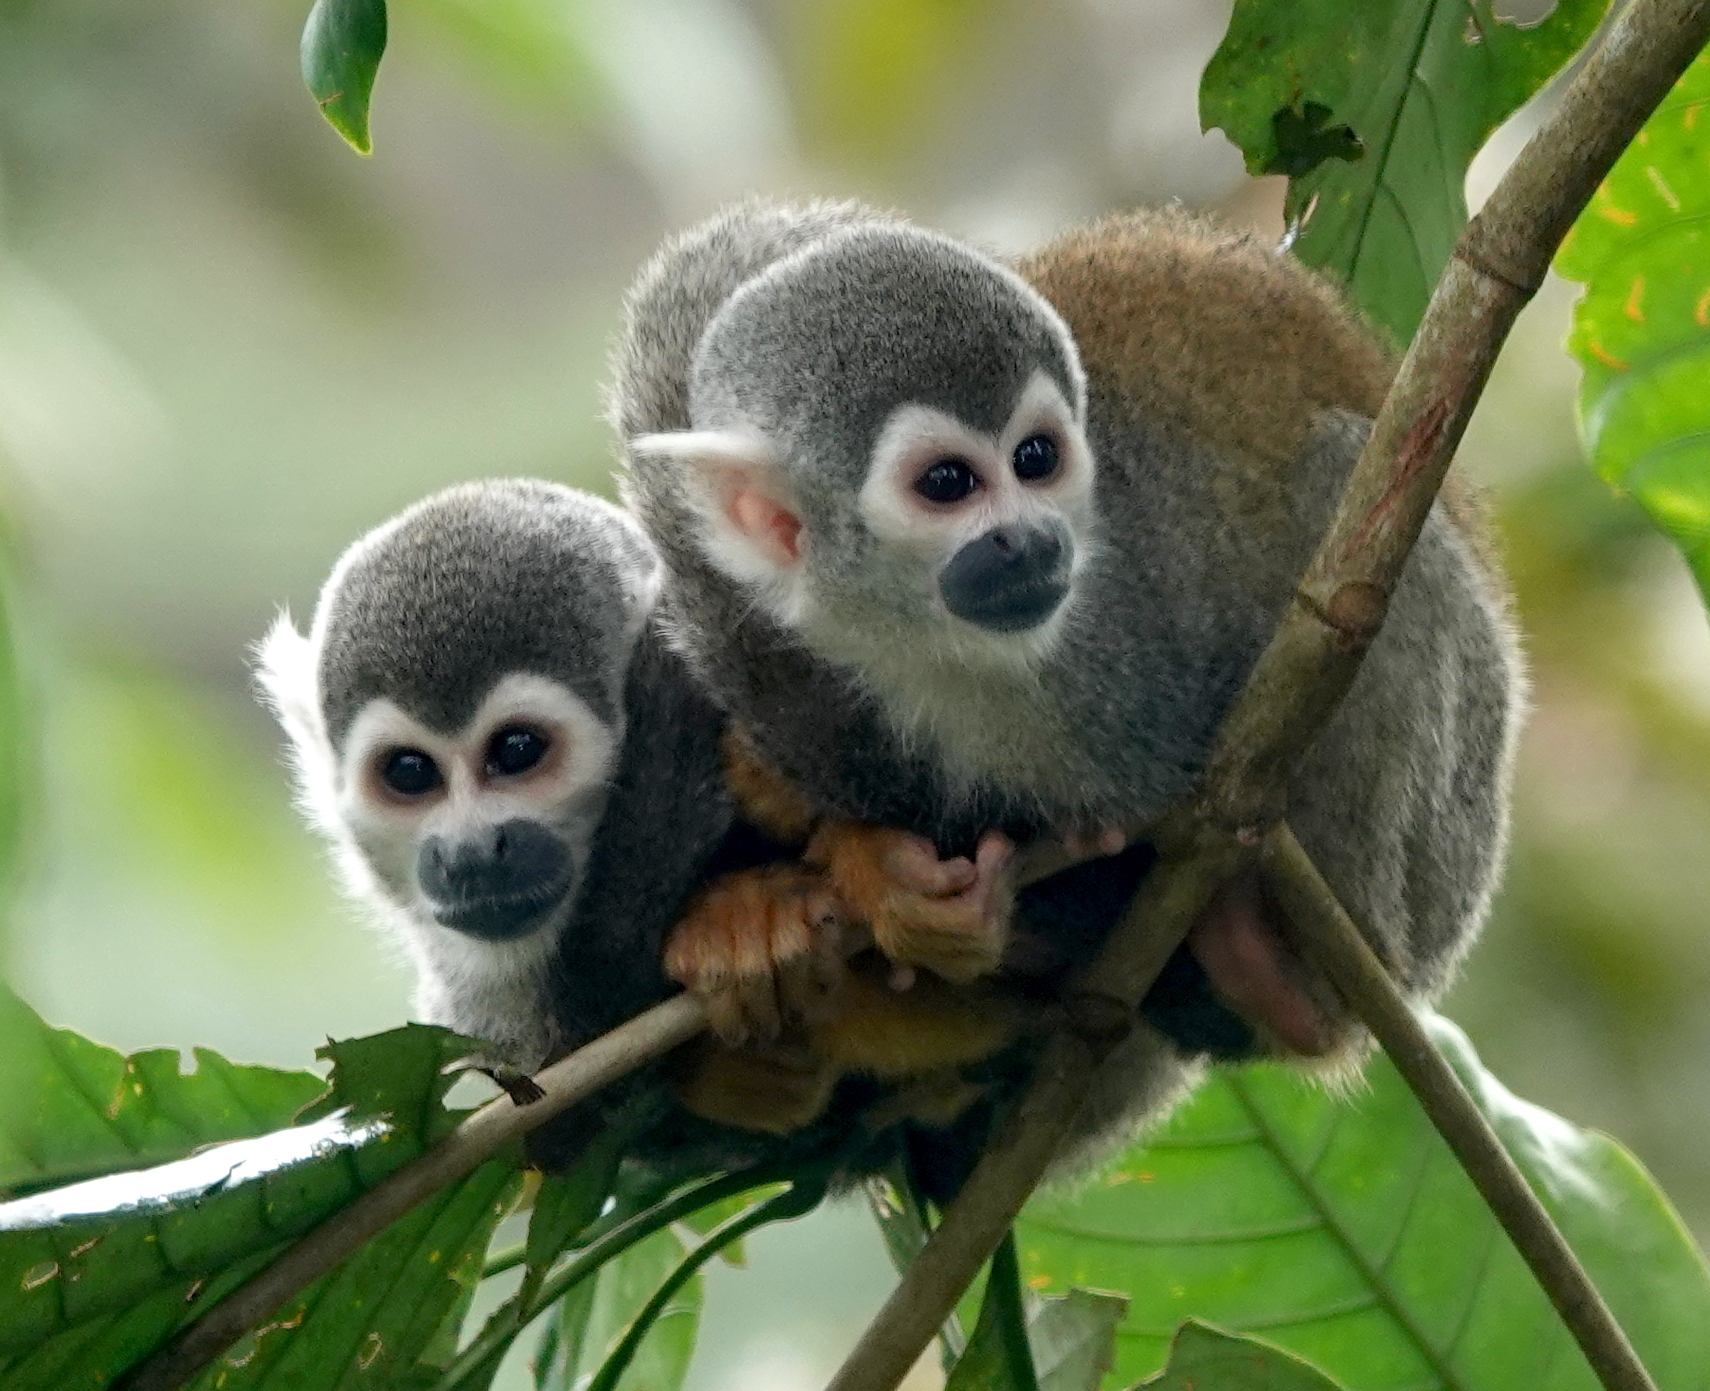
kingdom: Animalia
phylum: Chordata
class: Mammalia
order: Primates
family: Cebidae
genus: Saimiri
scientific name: Saimiri cassiquiarensis
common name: Humboldt’s squirrel monkey
